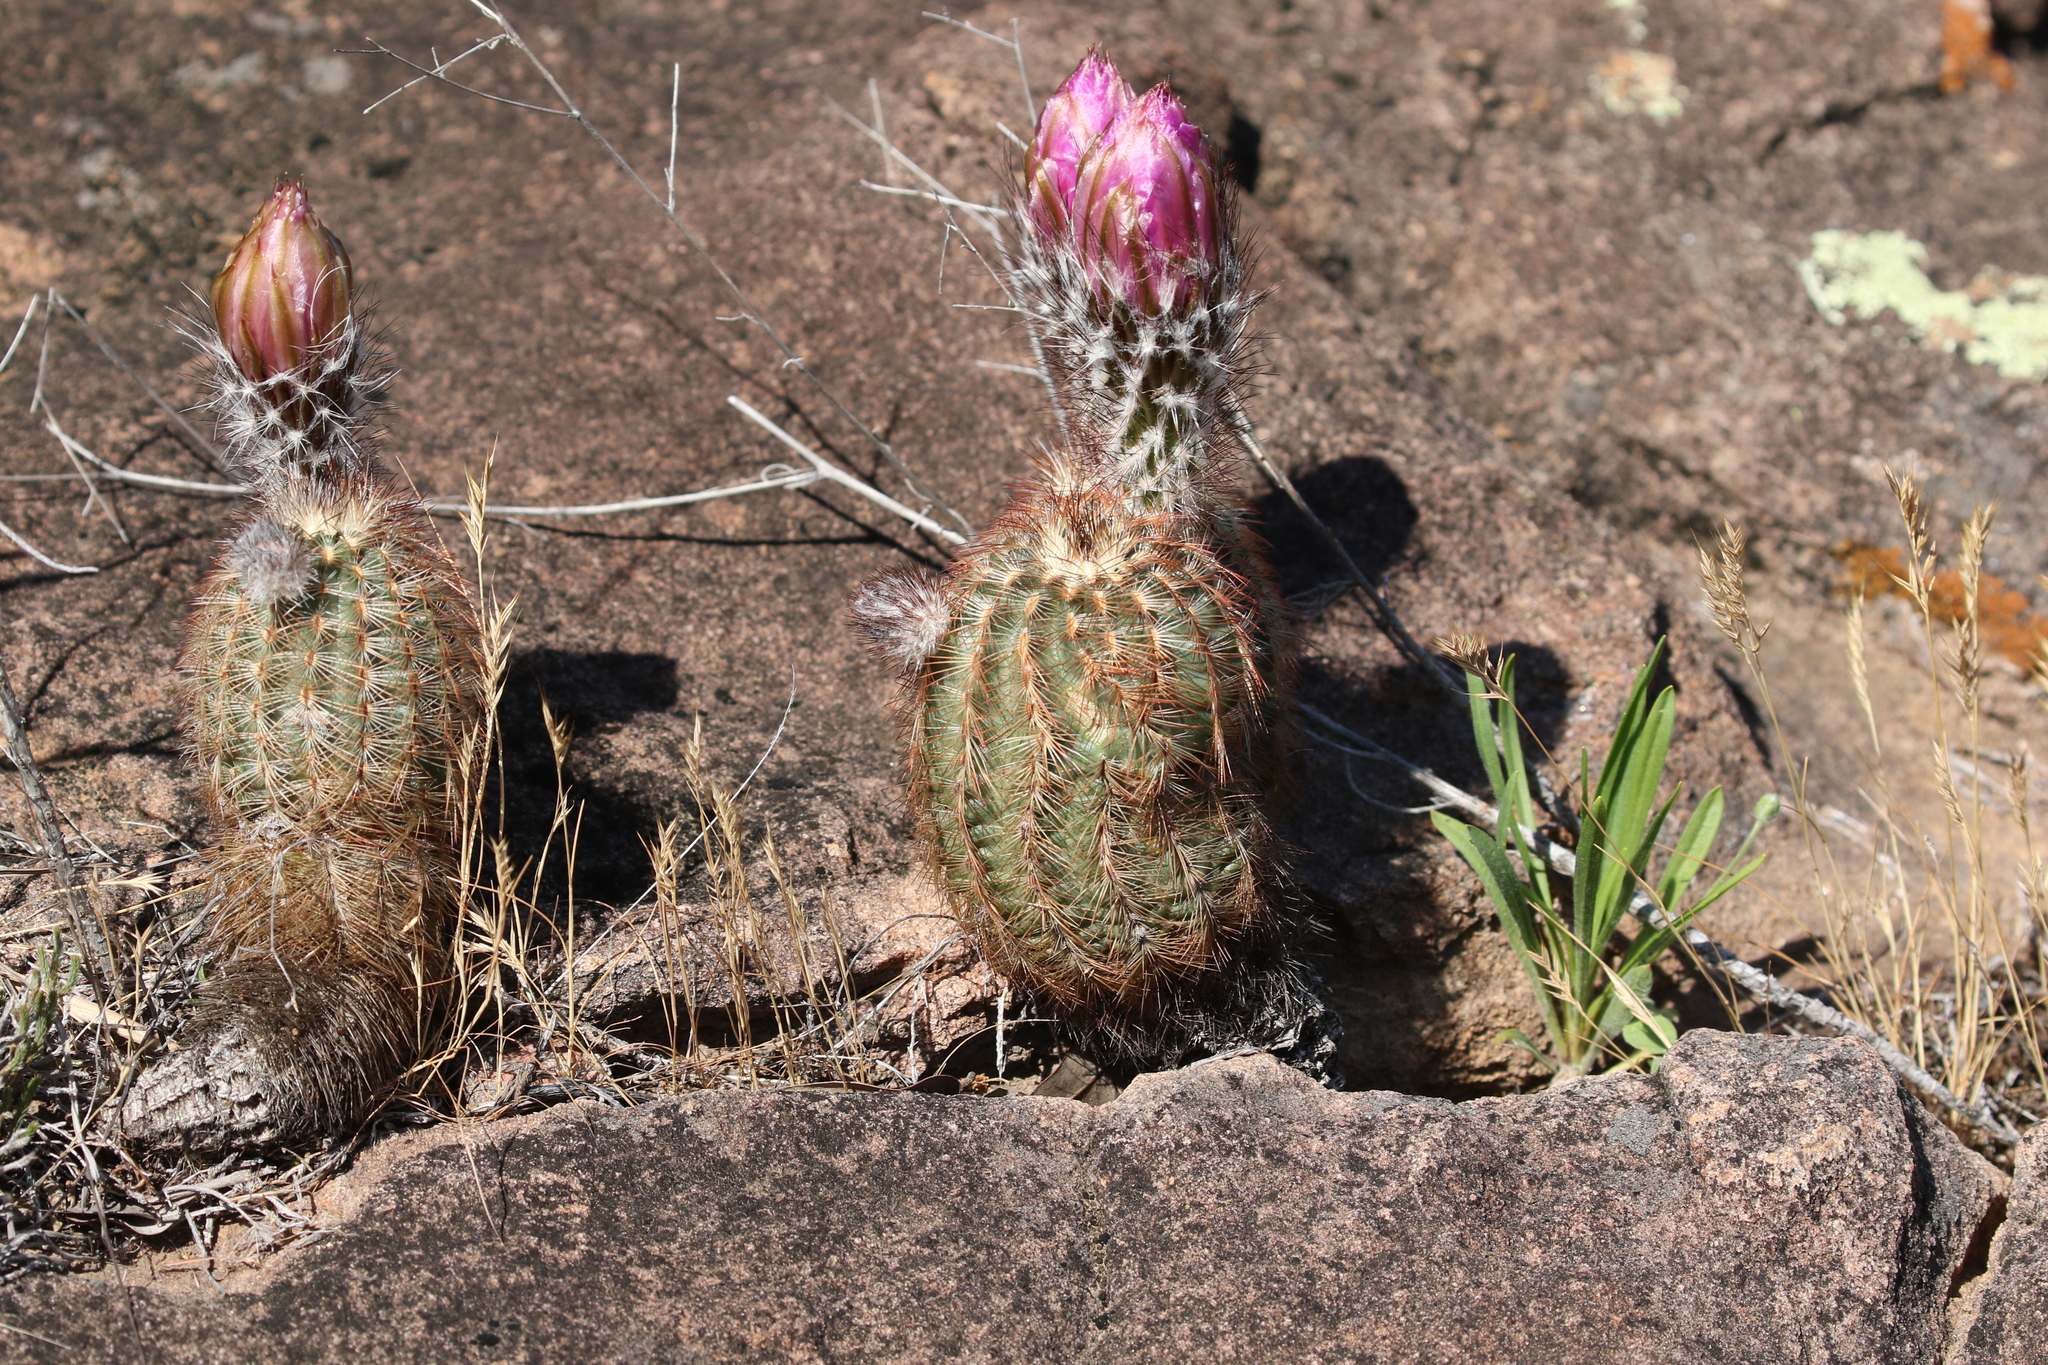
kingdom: Plantae
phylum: Tracheophyta
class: Magnoliopsida
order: Caryophyllales
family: Cactaceae
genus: Echinocereus
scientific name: Echinocereus reichenbachii
